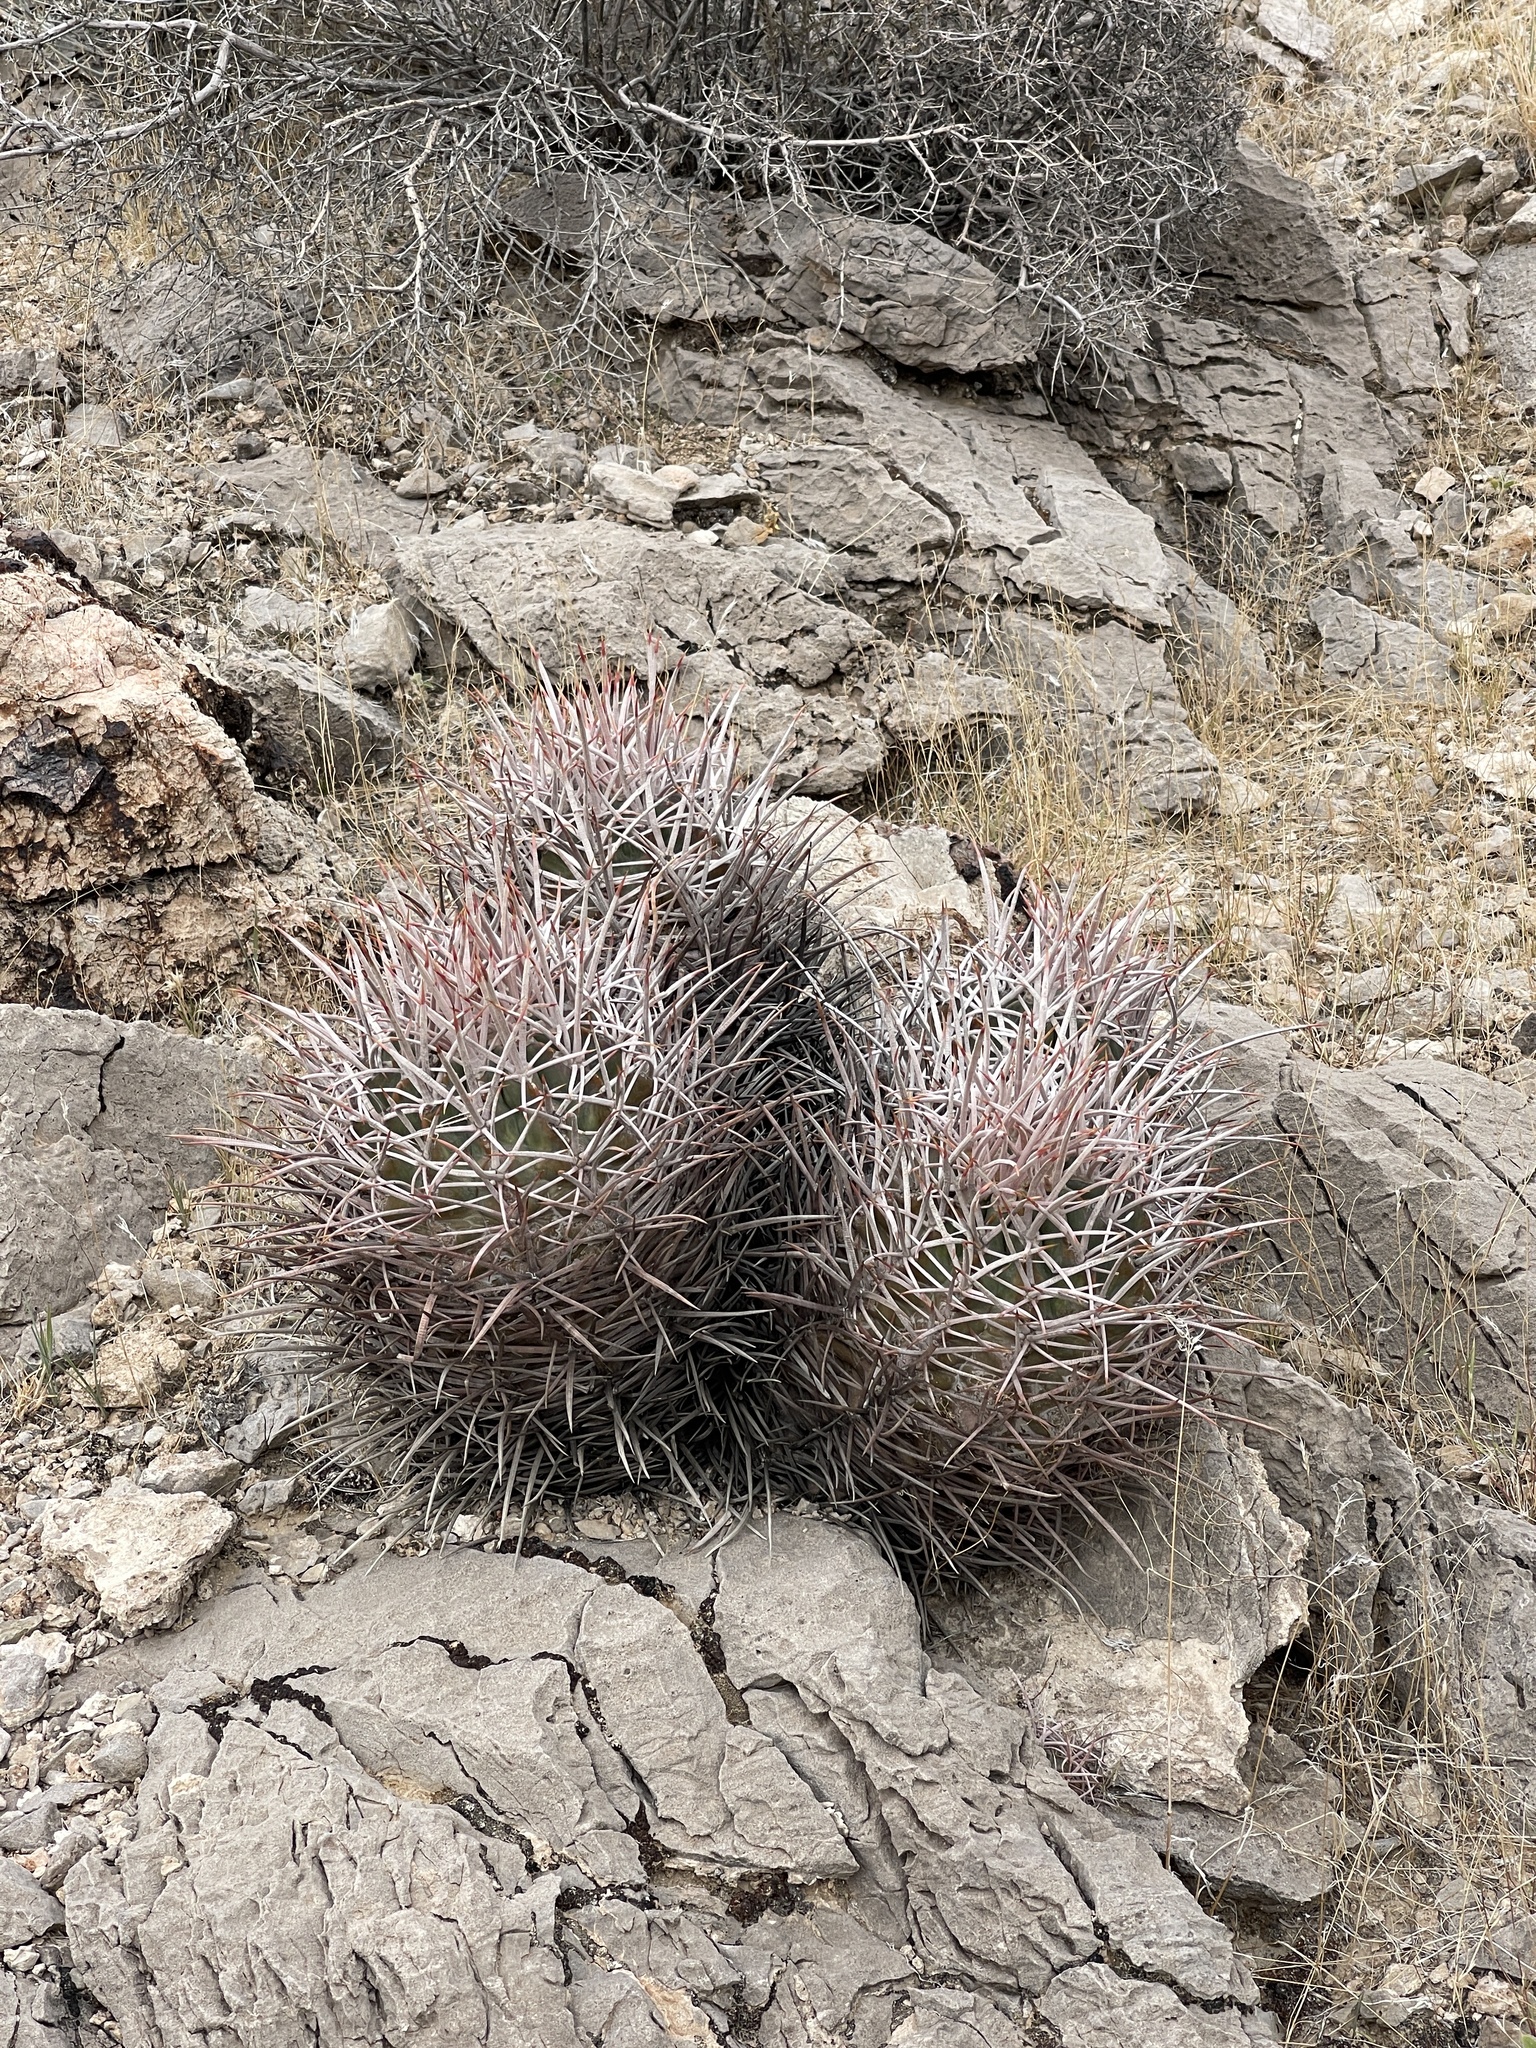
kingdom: Plantae
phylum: Tracheophyta
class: Magnoliopsida
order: Caryophyllales
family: Cactaceae
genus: Echinocactus
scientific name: Echinocactus polycephalus
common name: Cottontop cactus
